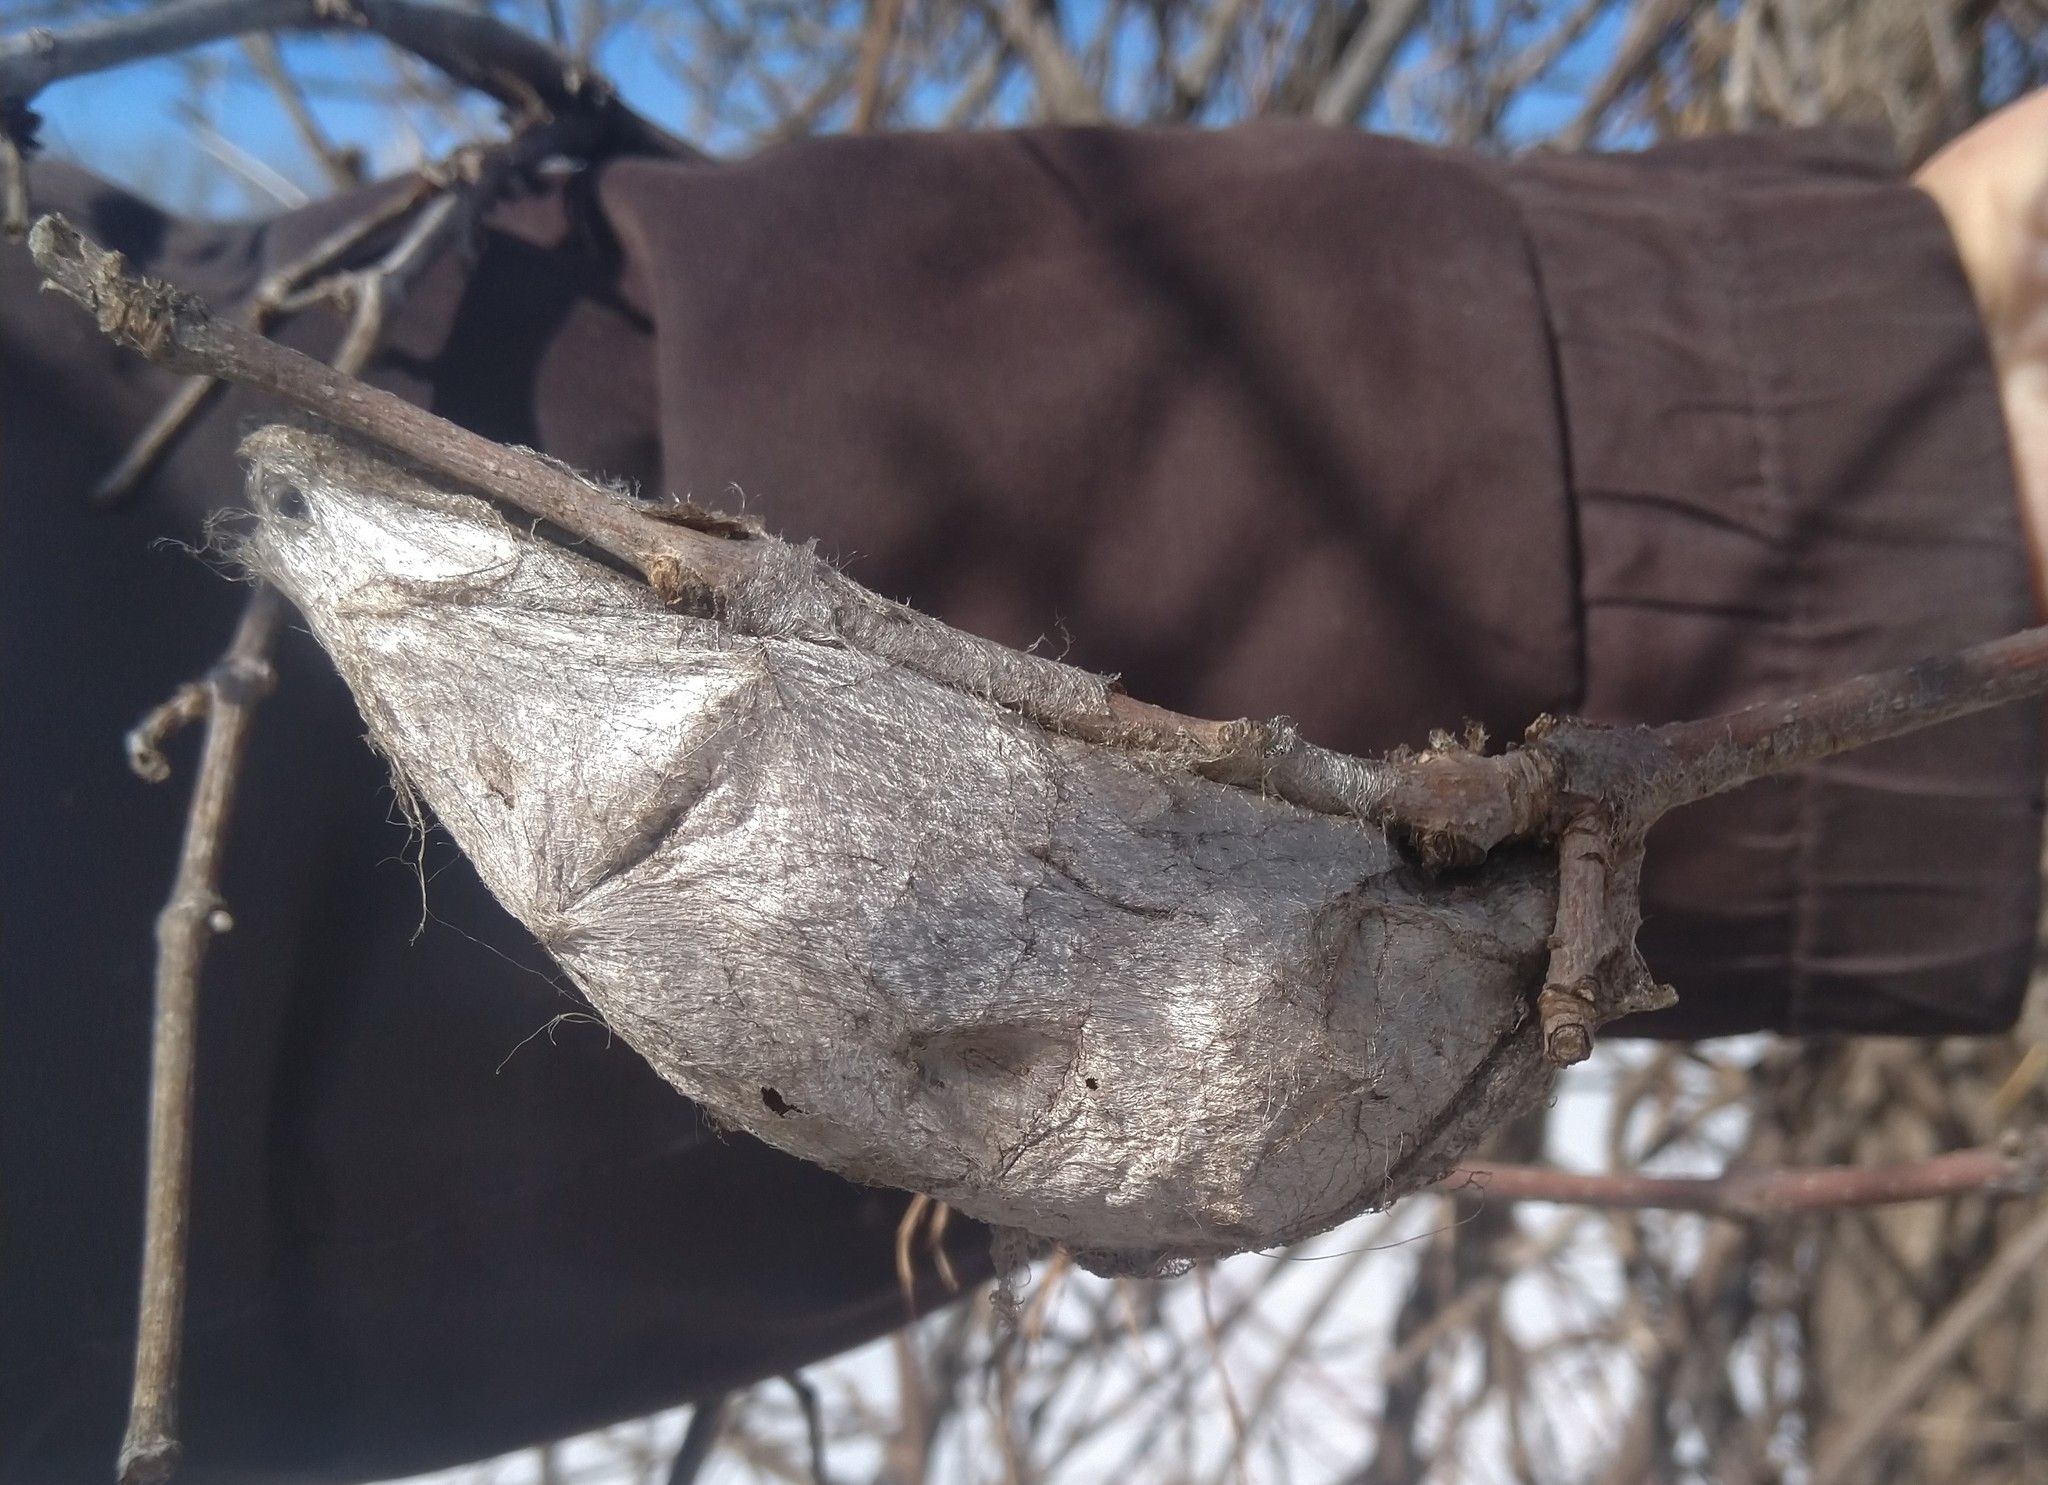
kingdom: Animalia
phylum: Arthropoda
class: Insecta
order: Lepidoptera
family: Saturniidae
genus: Hyalophora
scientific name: Hyalophora cecropia
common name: Cecropia silkmoth
